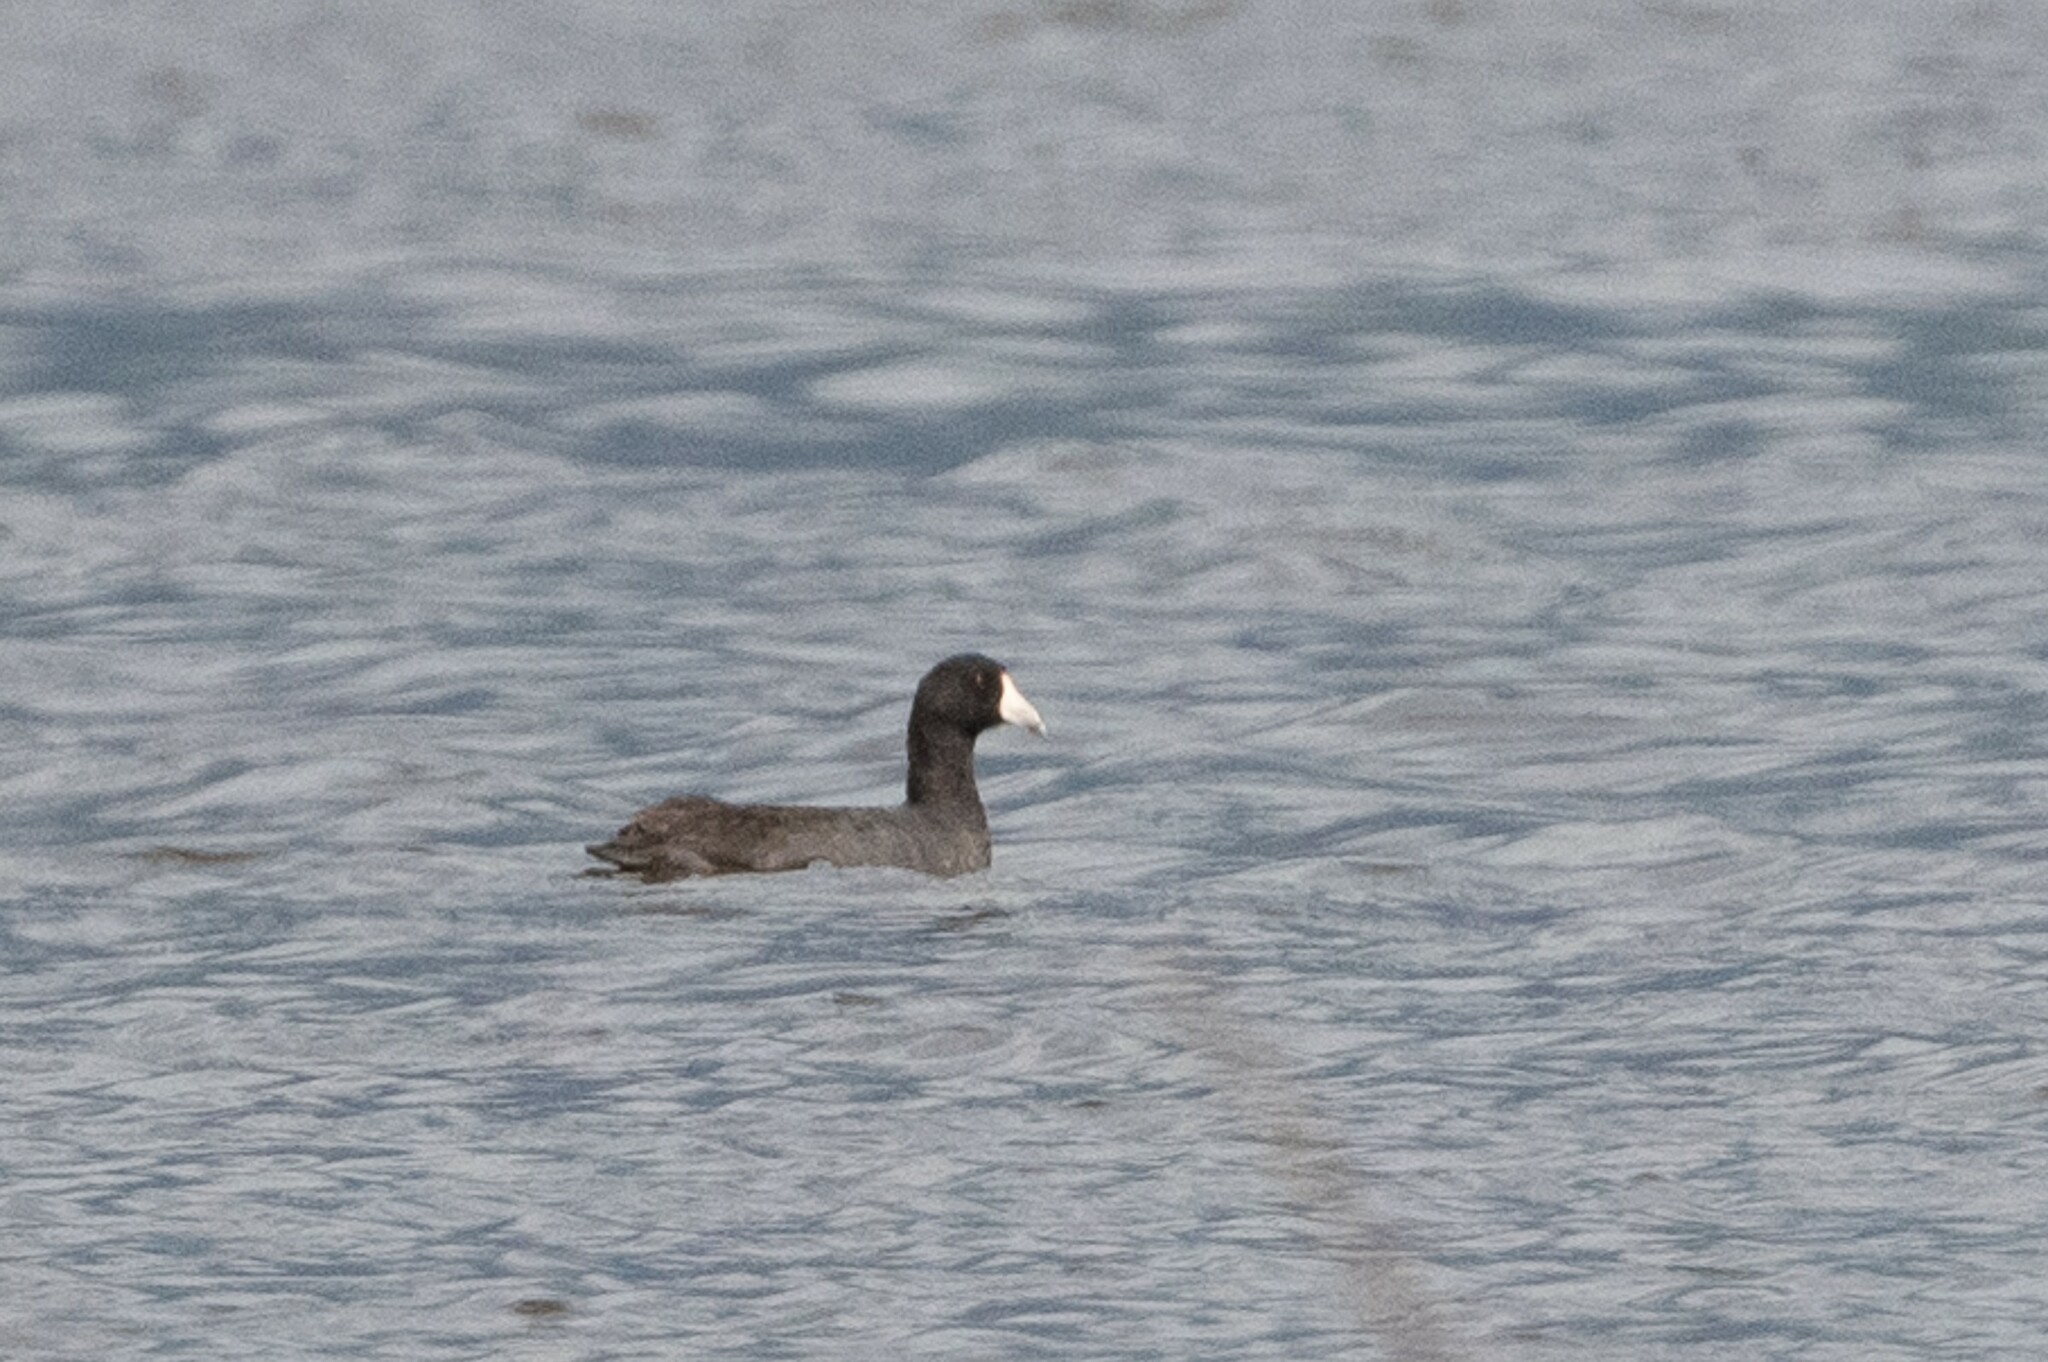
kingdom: Animalia
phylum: Chordata
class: Aves
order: Gruiformes
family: Rallidae
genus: Fulica
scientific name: Fulica americana
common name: American coot
